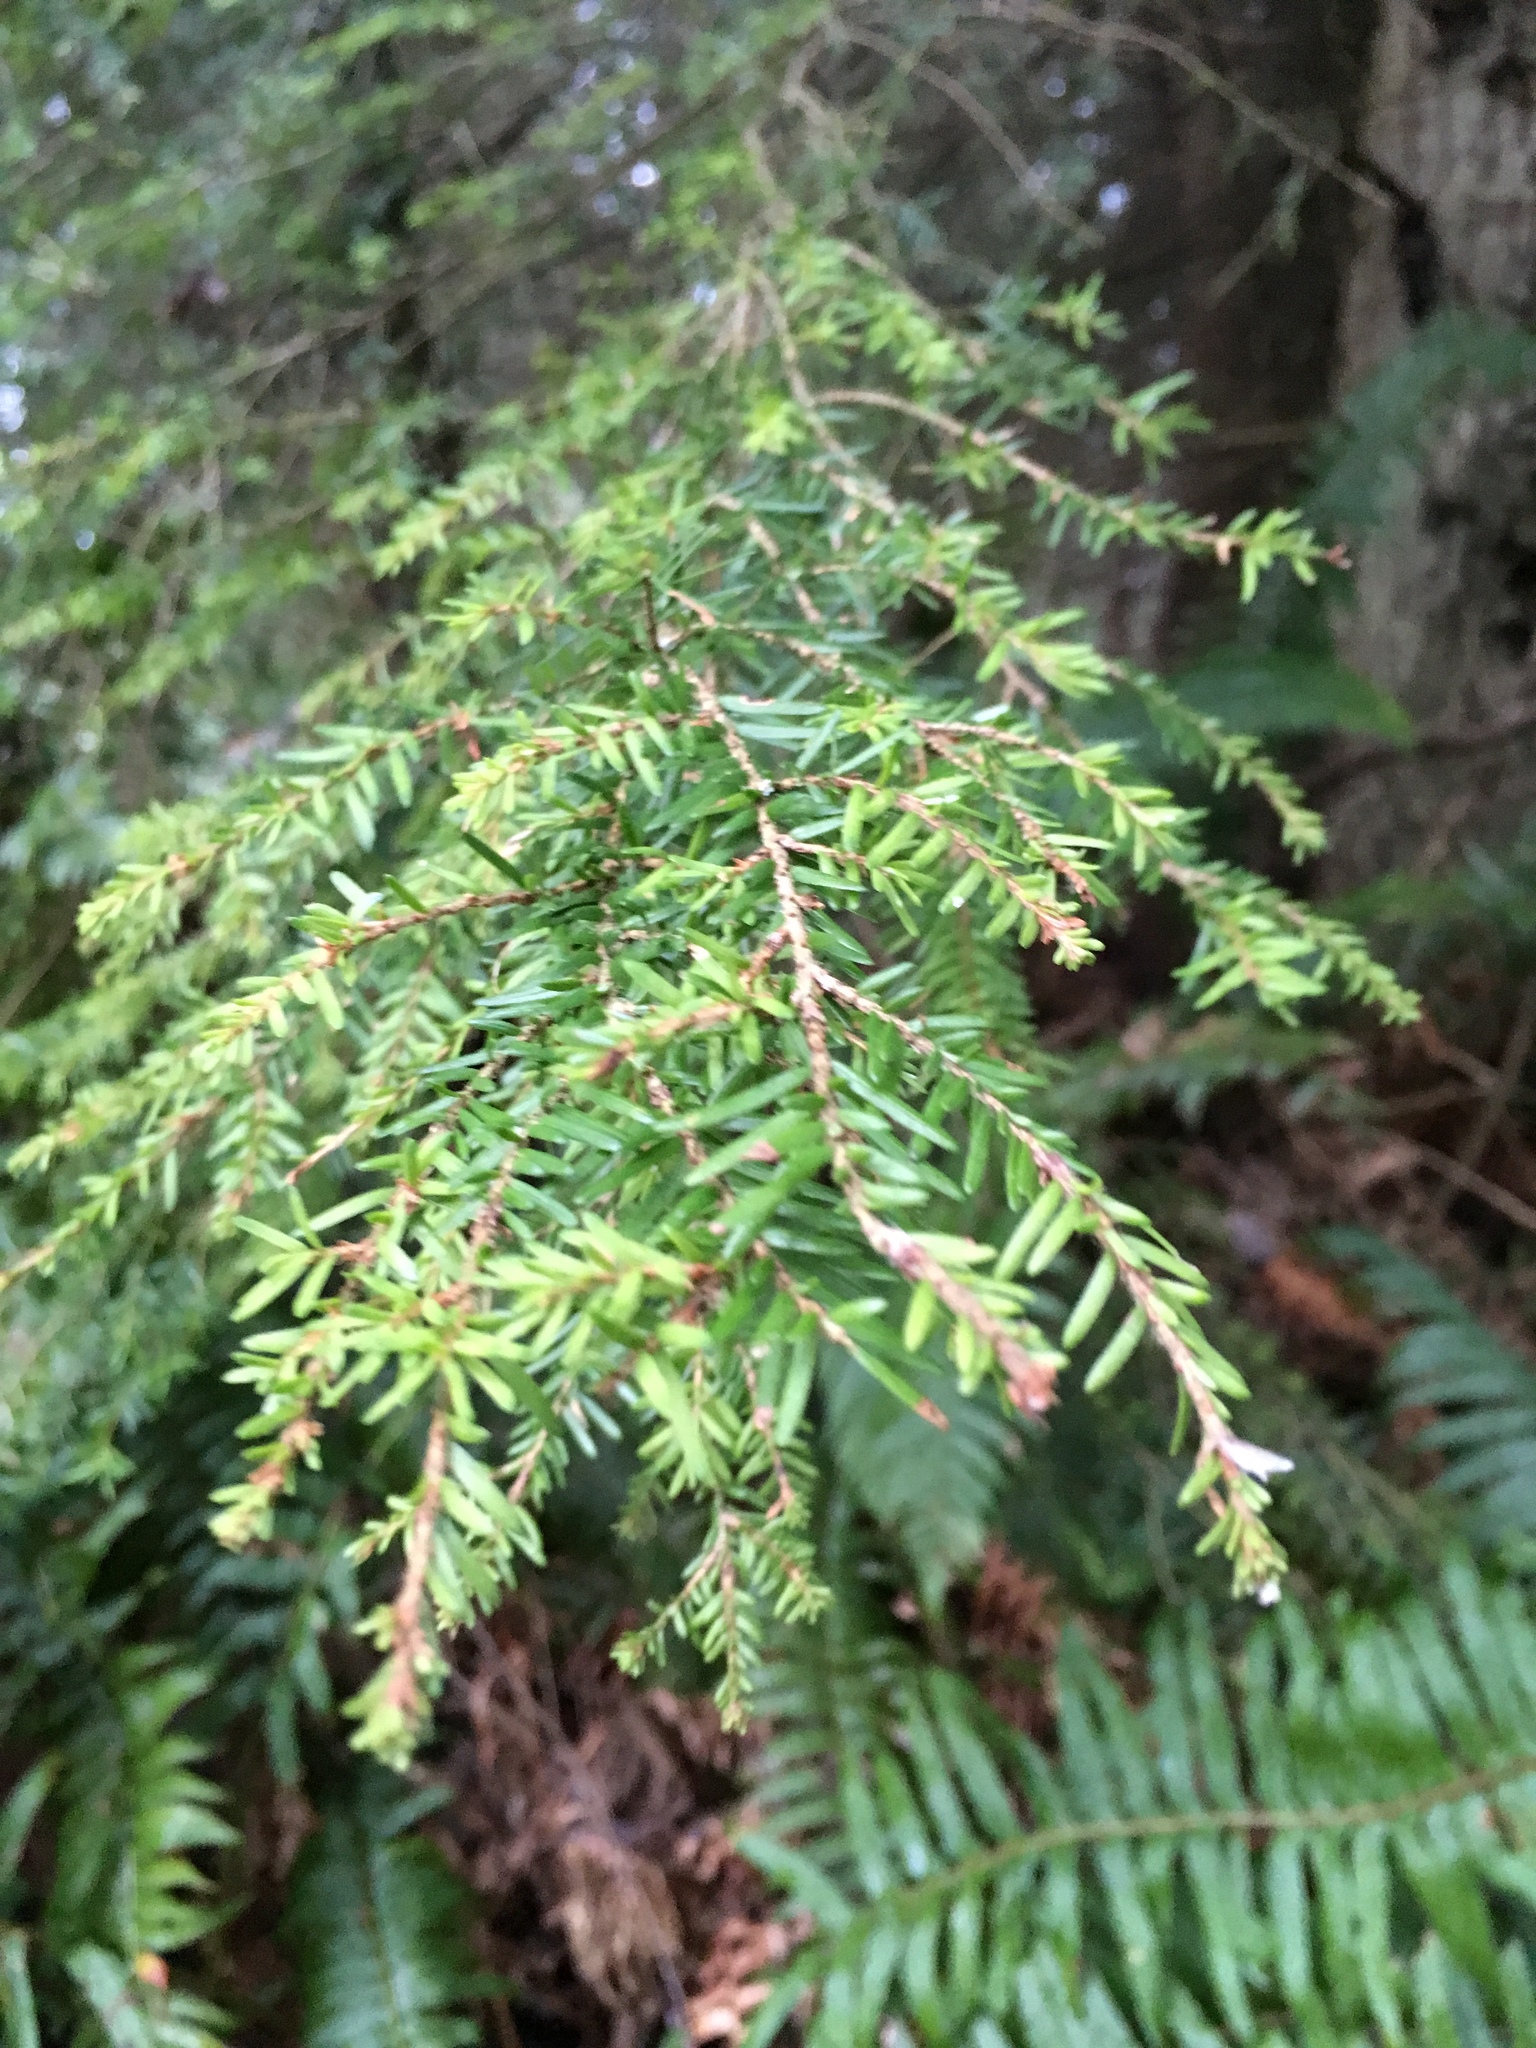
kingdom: Plantae
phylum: Tracheophyta
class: Pinopsida
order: Pinales
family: Pinaceae
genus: Tsuga
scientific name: Tsuga heterophylla
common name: Western hemlock
